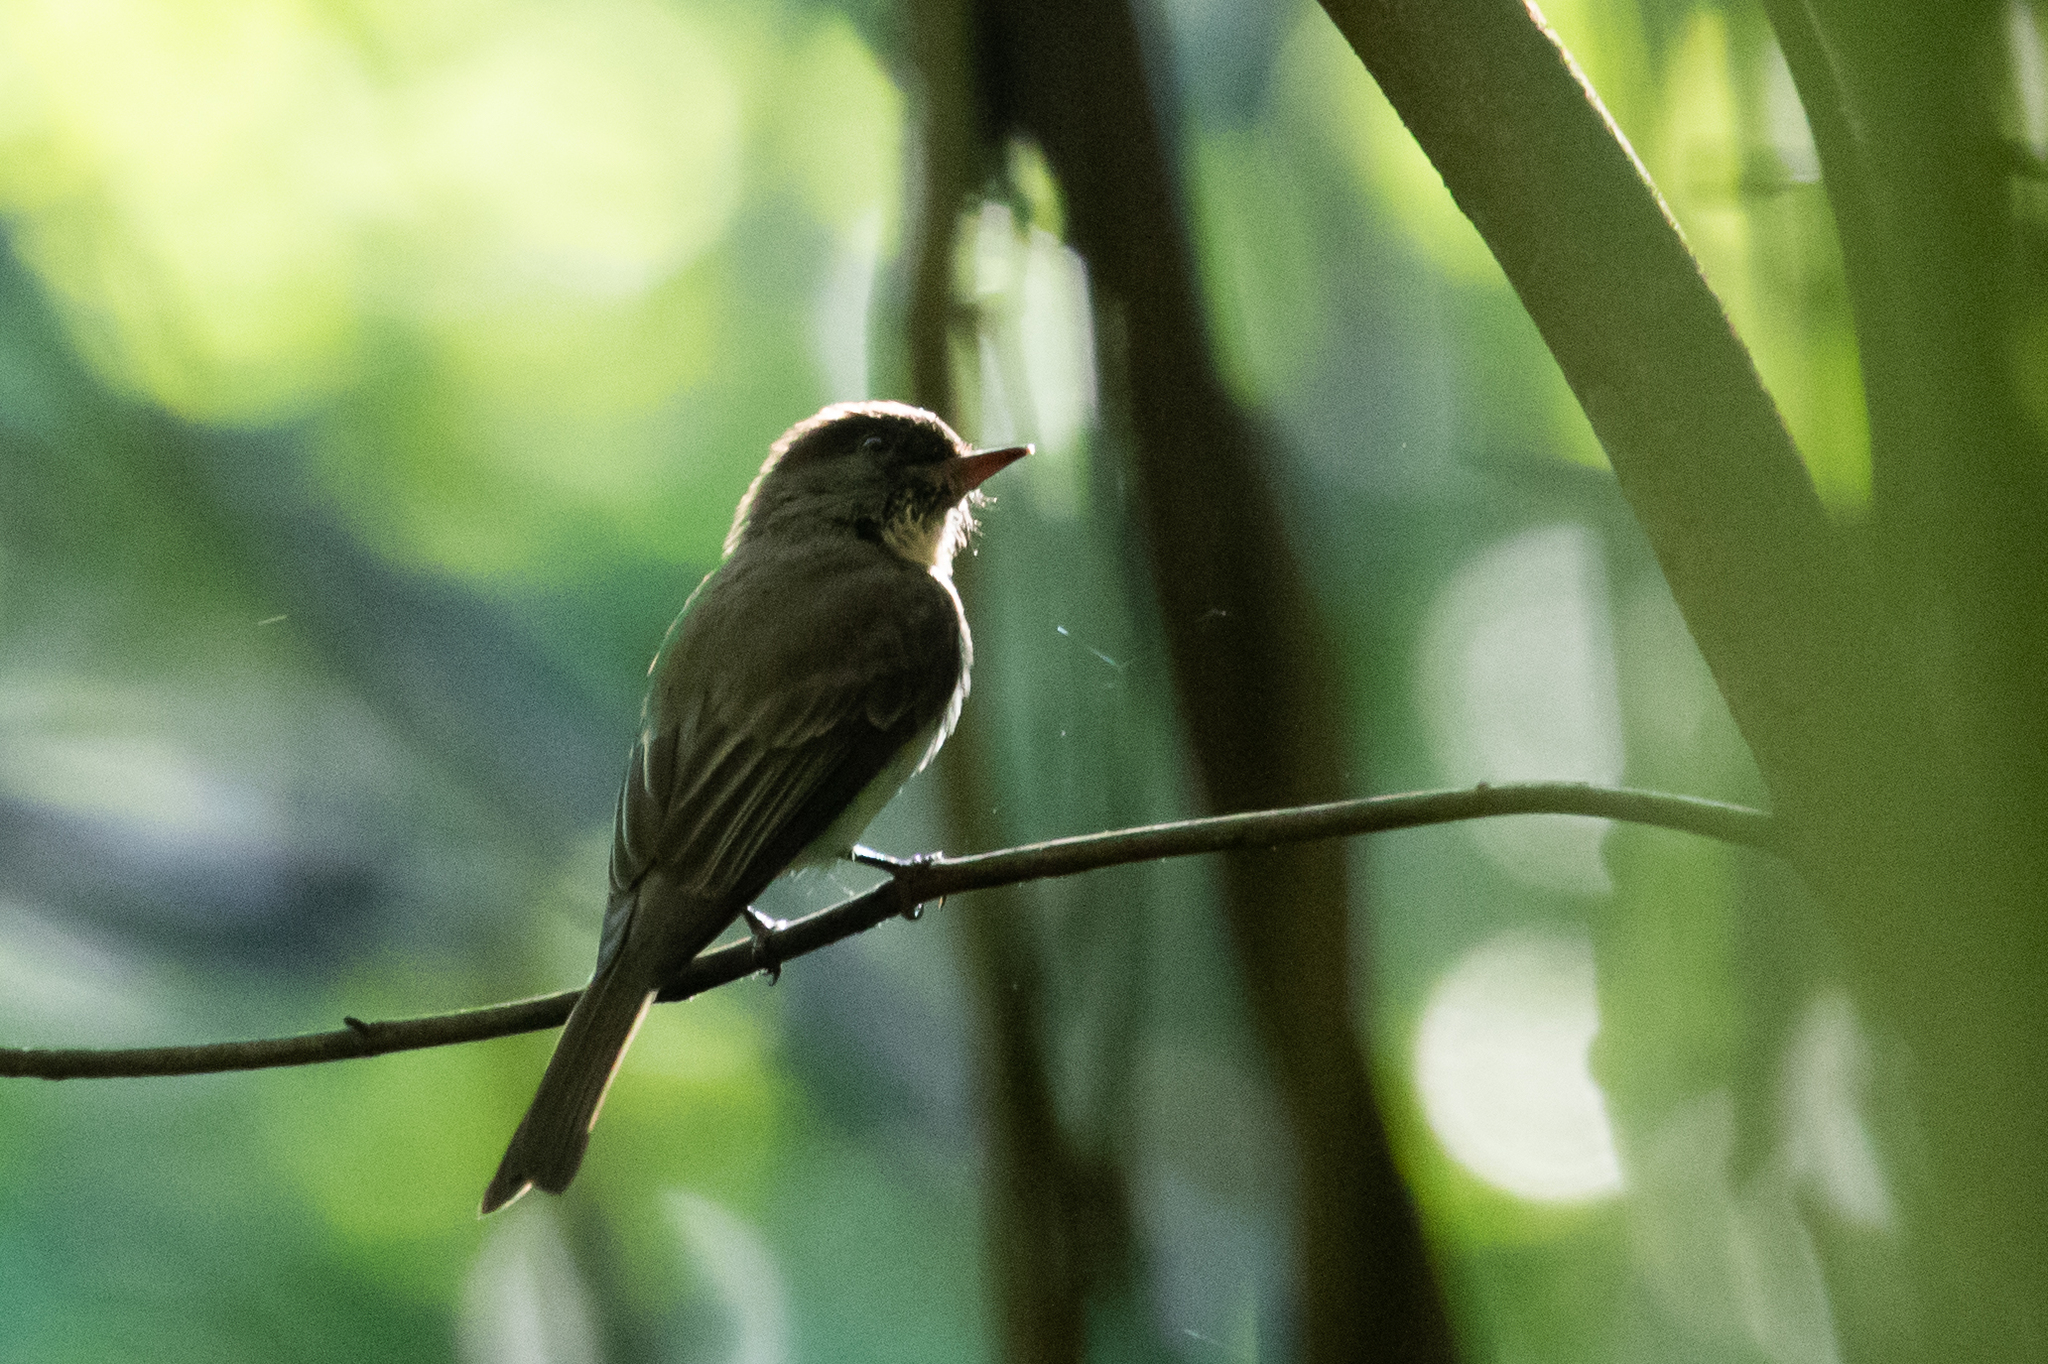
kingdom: Animalia
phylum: Chordata
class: Aves
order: Passeriformes
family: Tyrannidae
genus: Sayornis
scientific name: Sayornis phoebe
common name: Eastern phoebe
